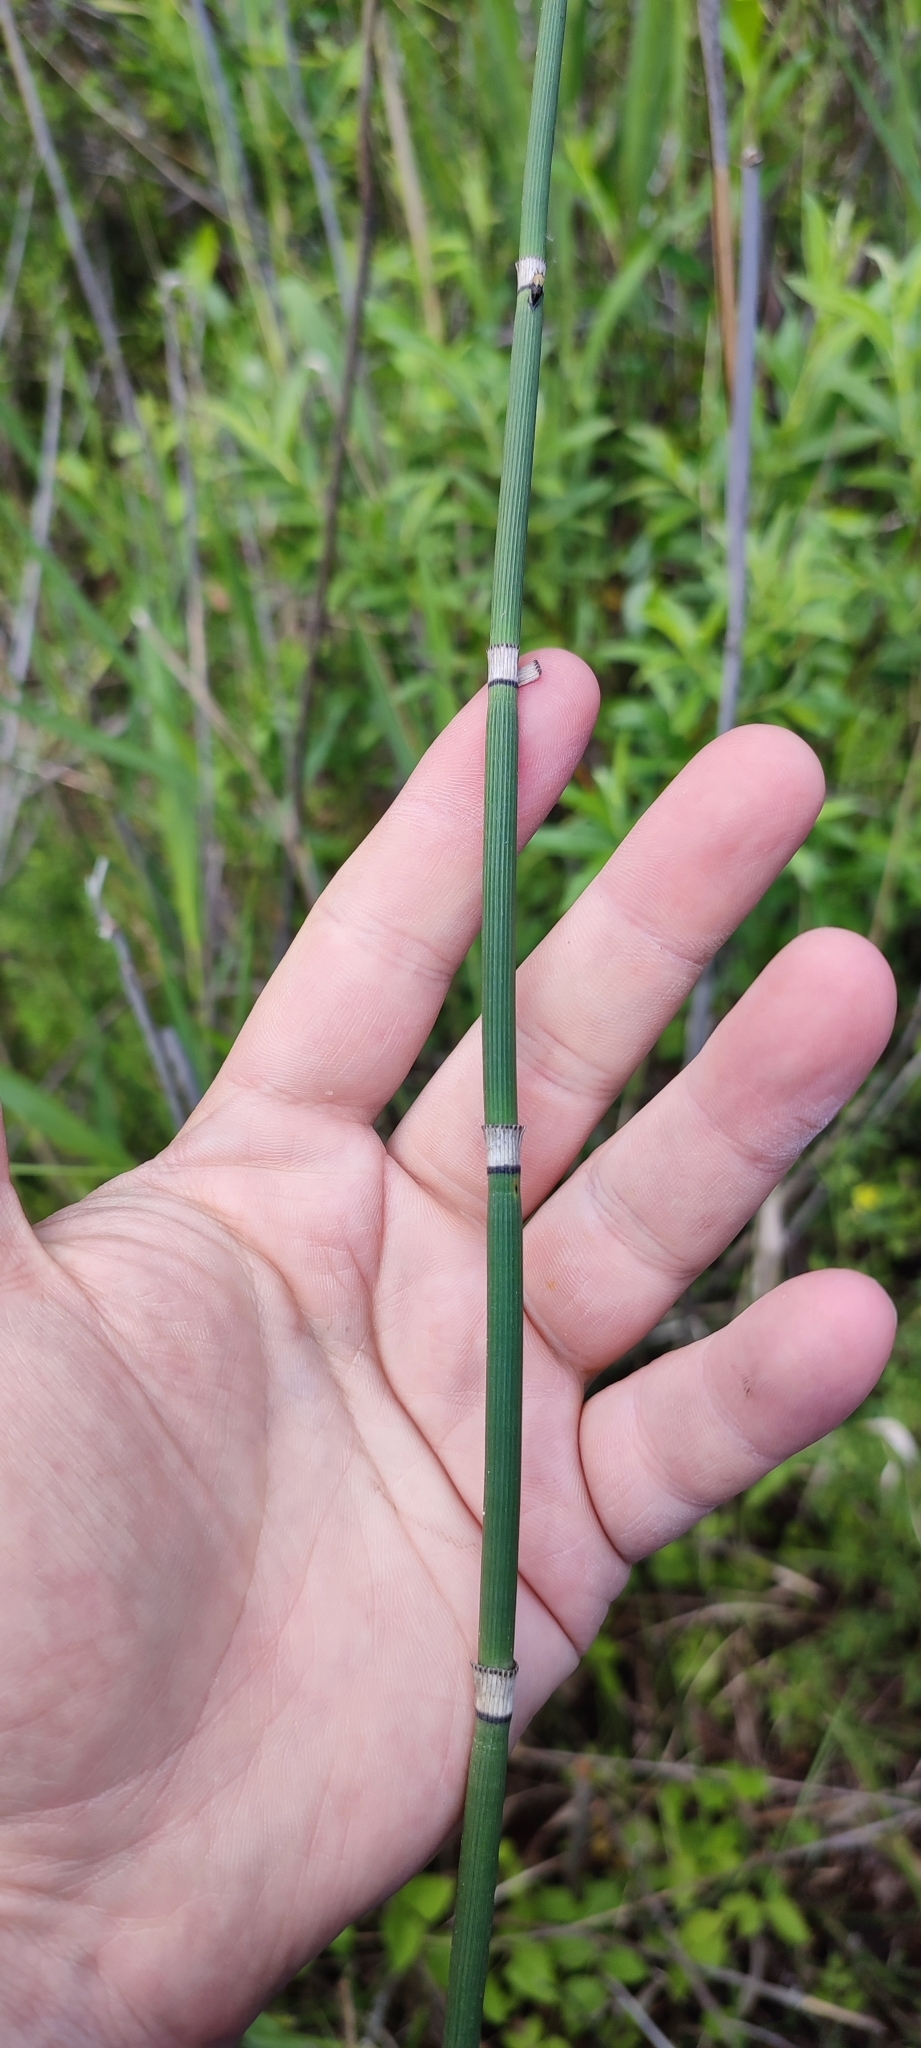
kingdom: Plantae
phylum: Tracheophyta
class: Polypodiopsida
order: Equisetales
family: Equisetaceae
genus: Equisetum
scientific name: Equisetum hyemale
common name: Rough horsetail
